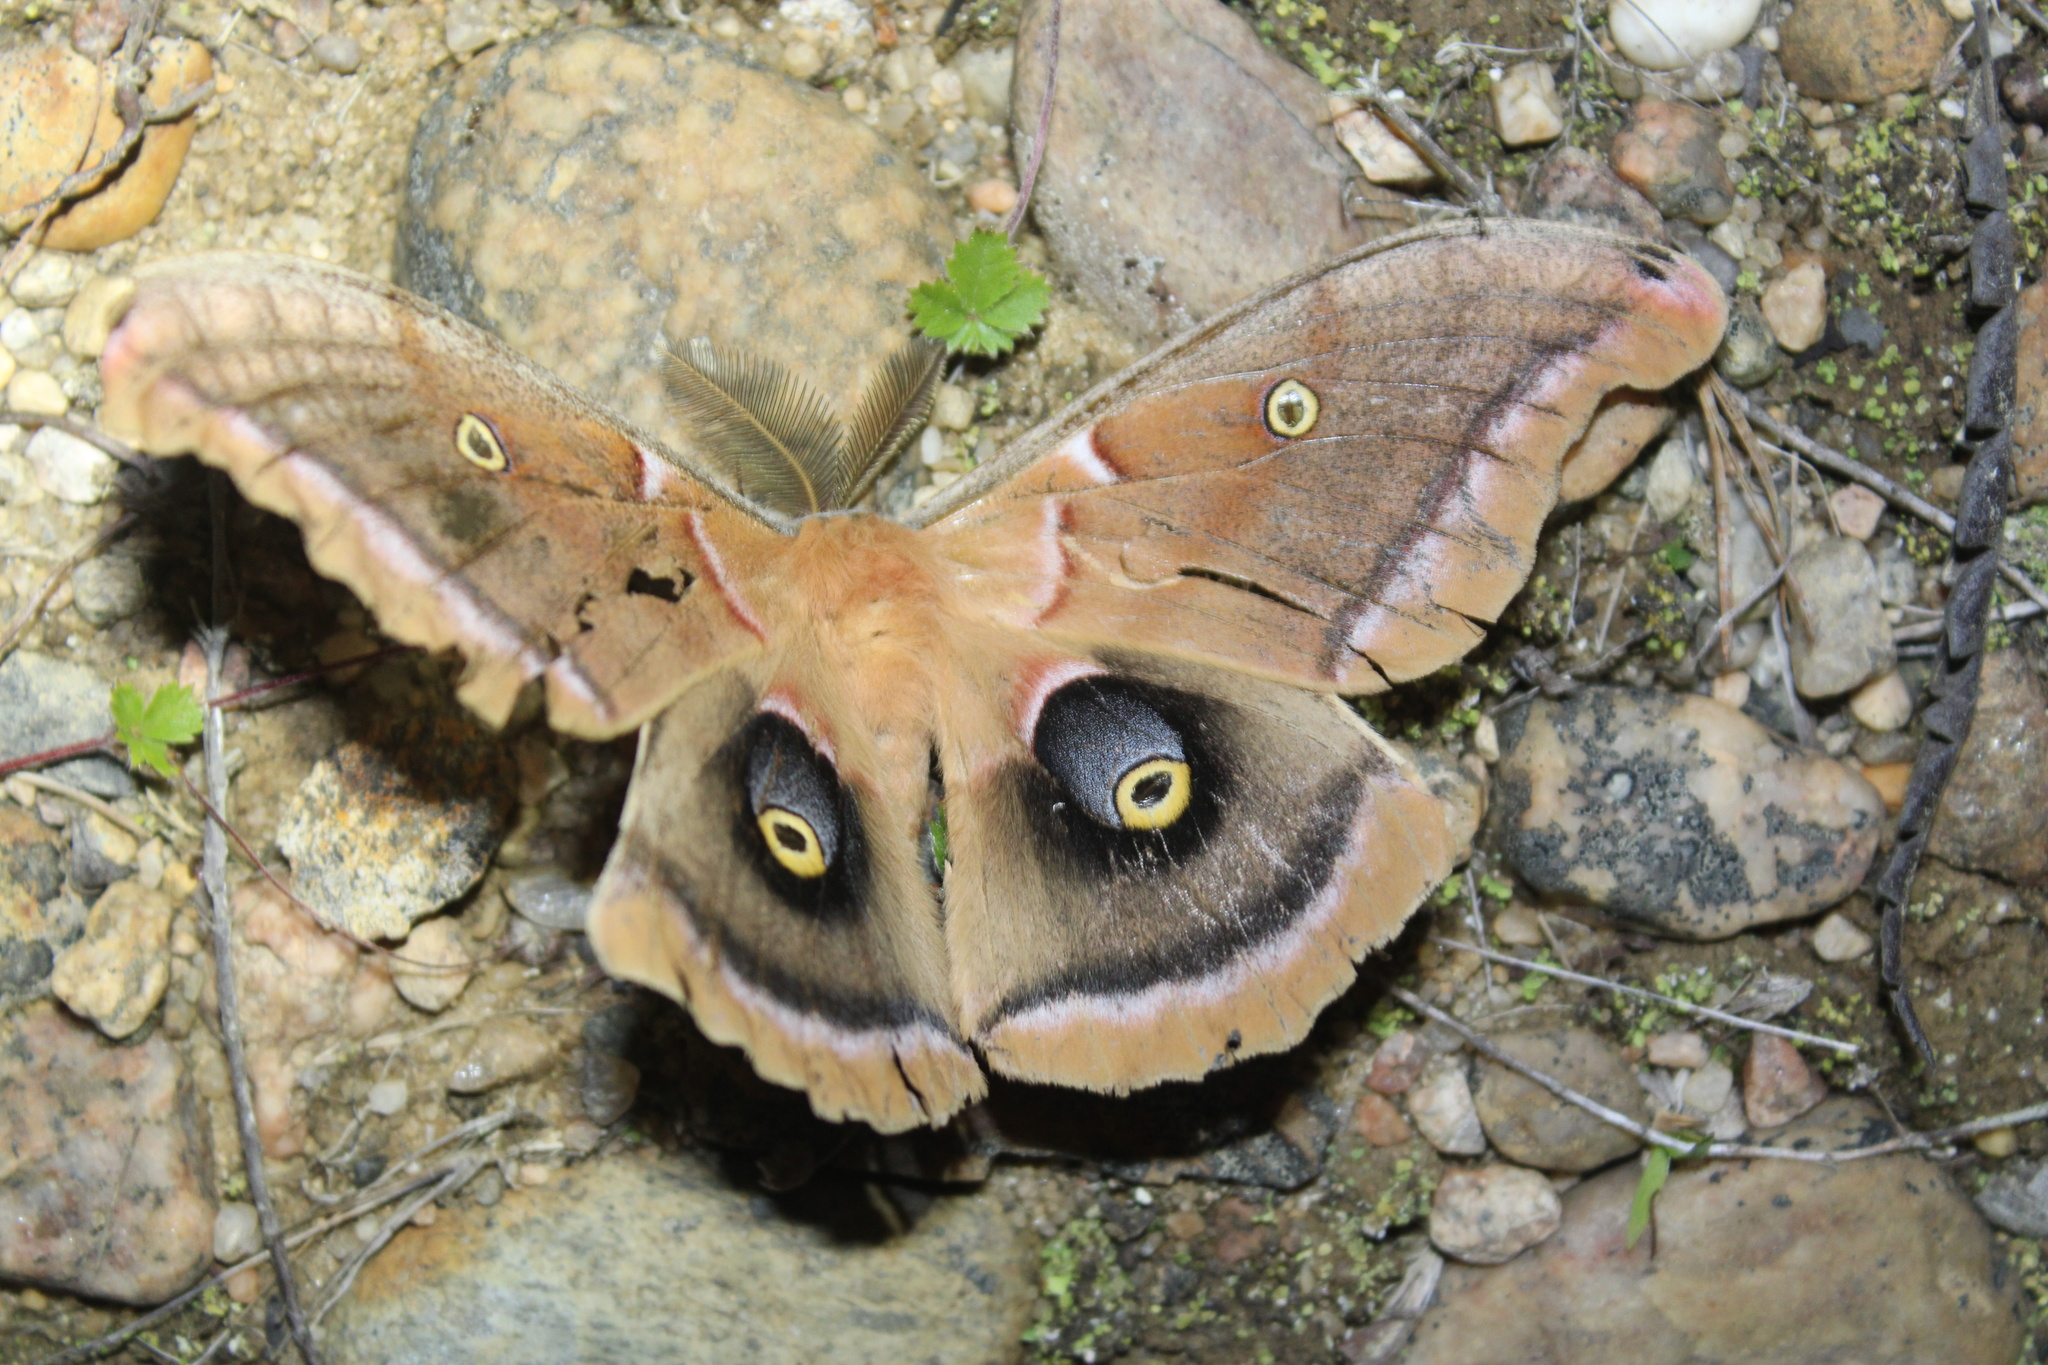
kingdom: Animalia
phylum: Arthropoda
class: Insecta
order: Lepidoptera
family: Saturniidae
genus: Antheraea
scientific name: Antheraea polyphemus
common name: Polyphemus moth
